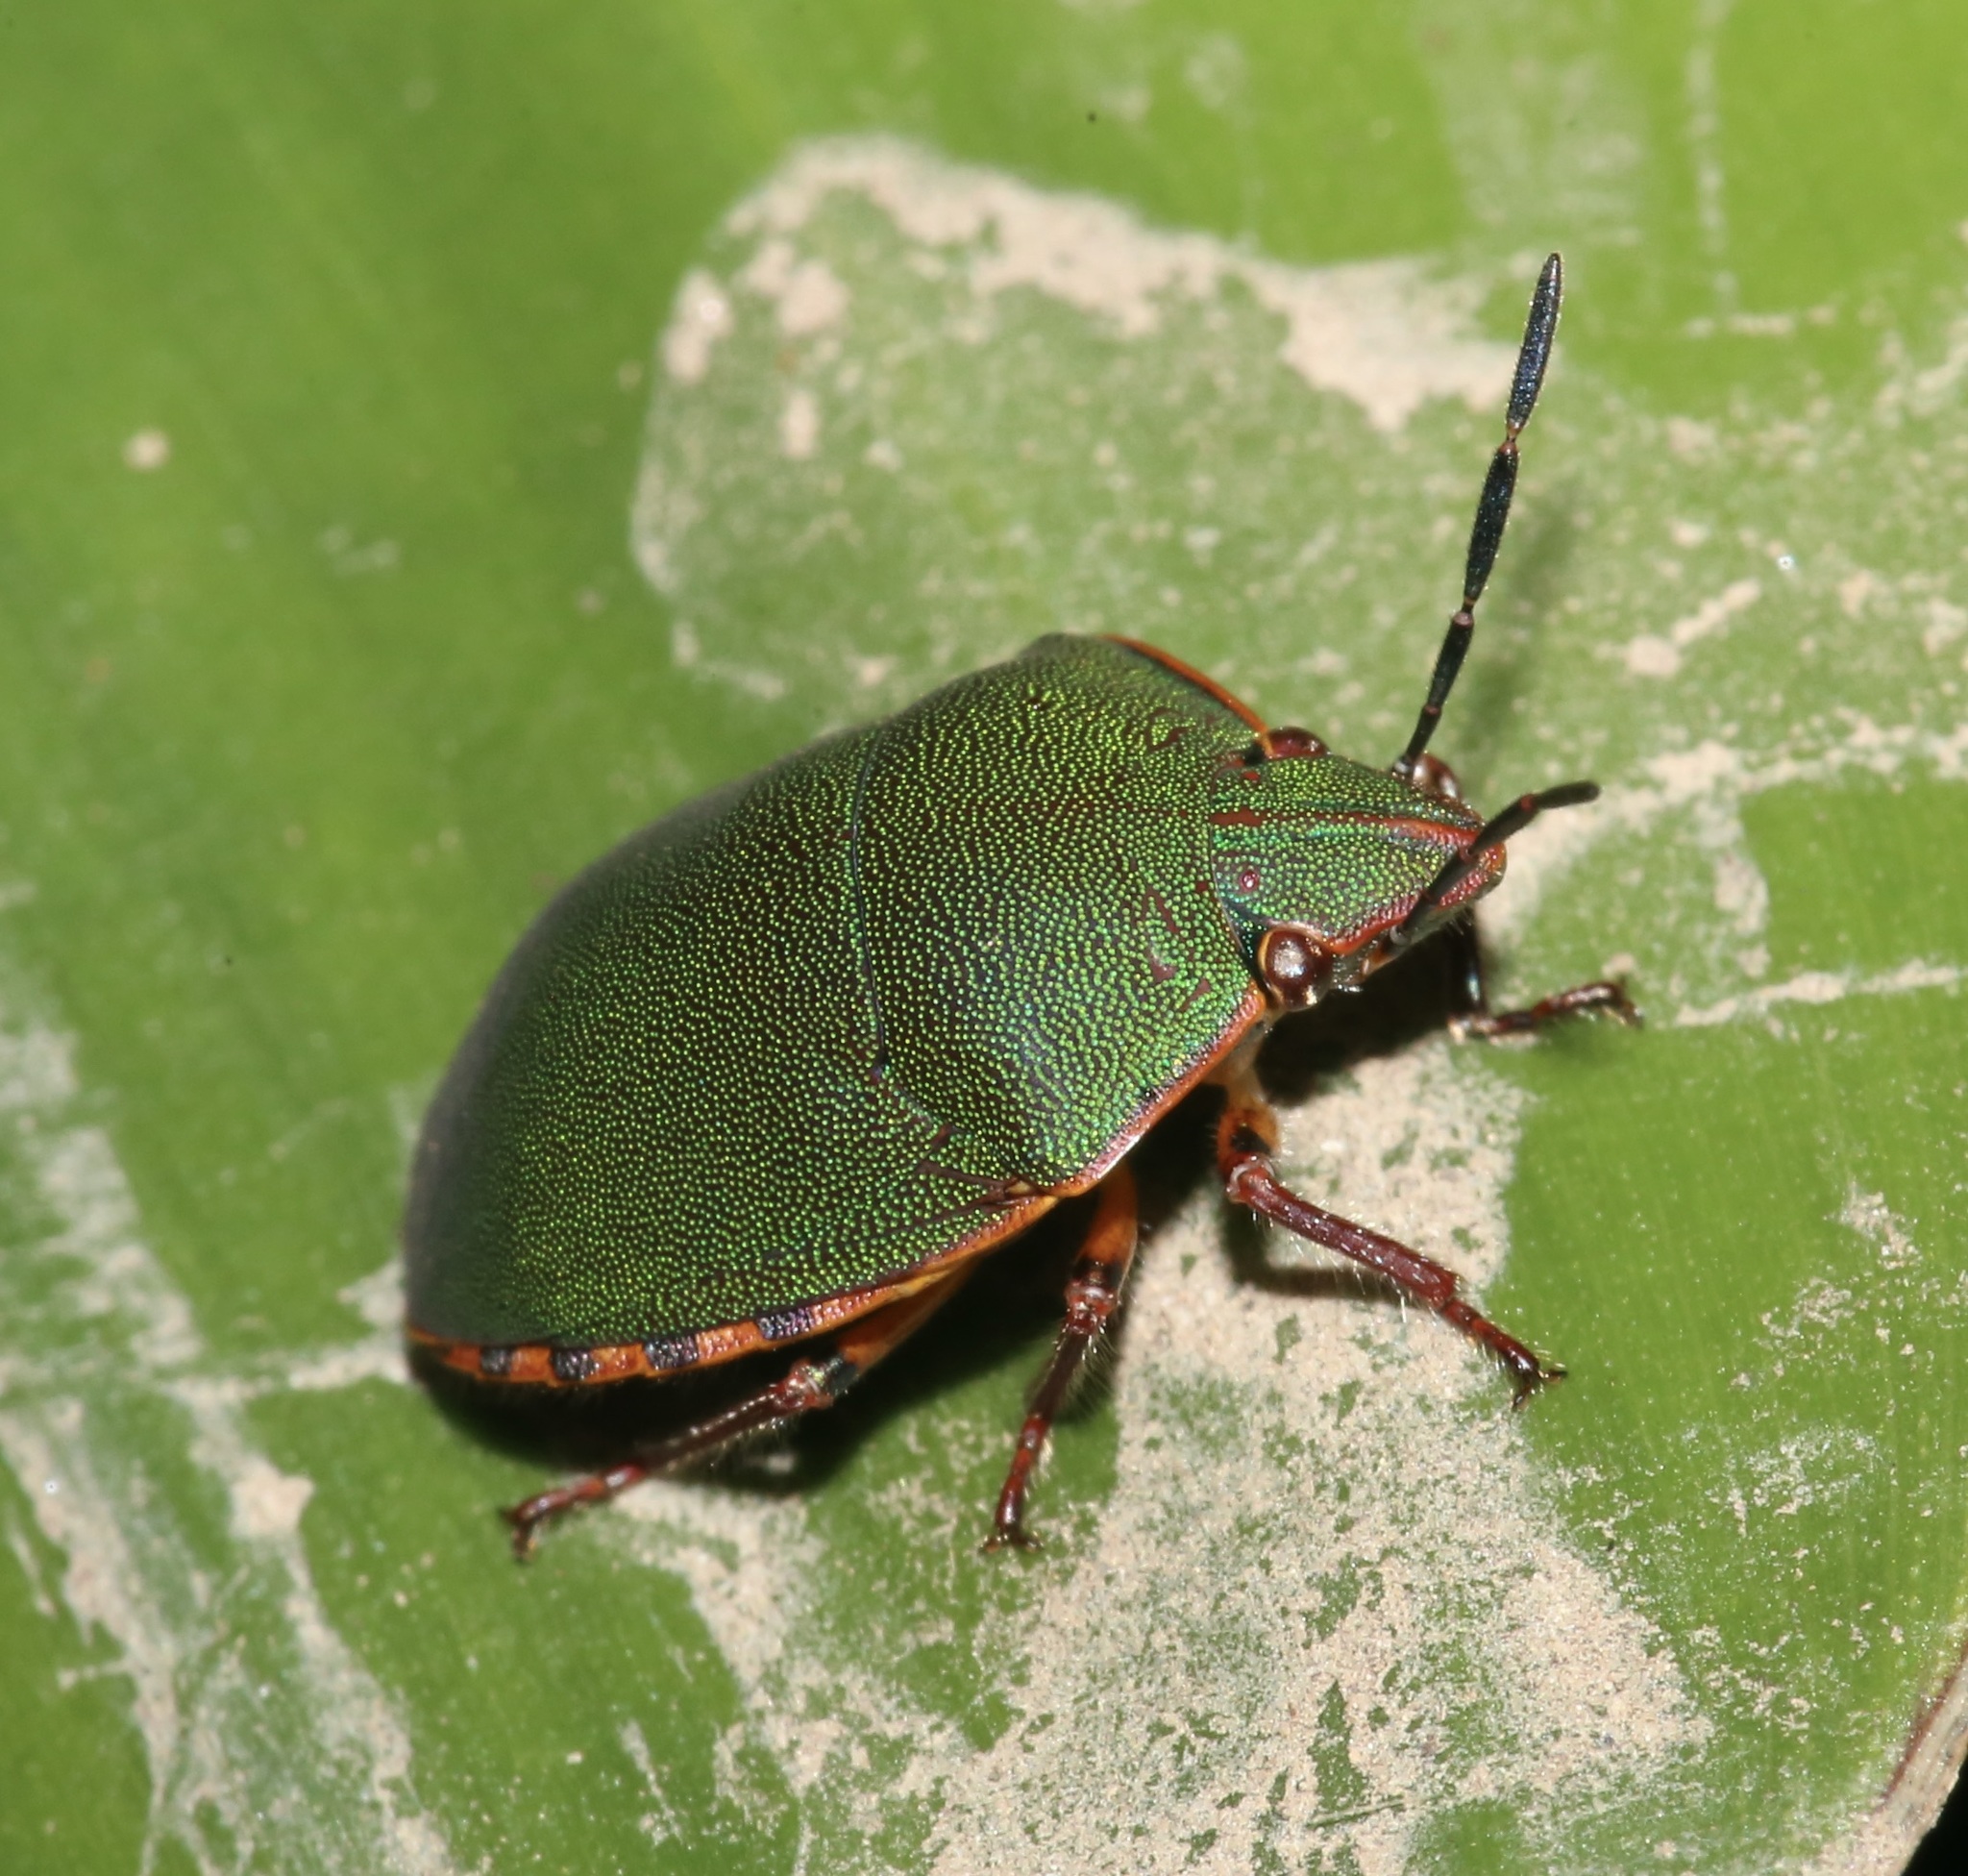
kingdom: Animalia
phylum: Arthropoda
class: Insecta
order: Hemiptera
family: Scutelleridae
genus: Polytes
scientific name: Polytes
